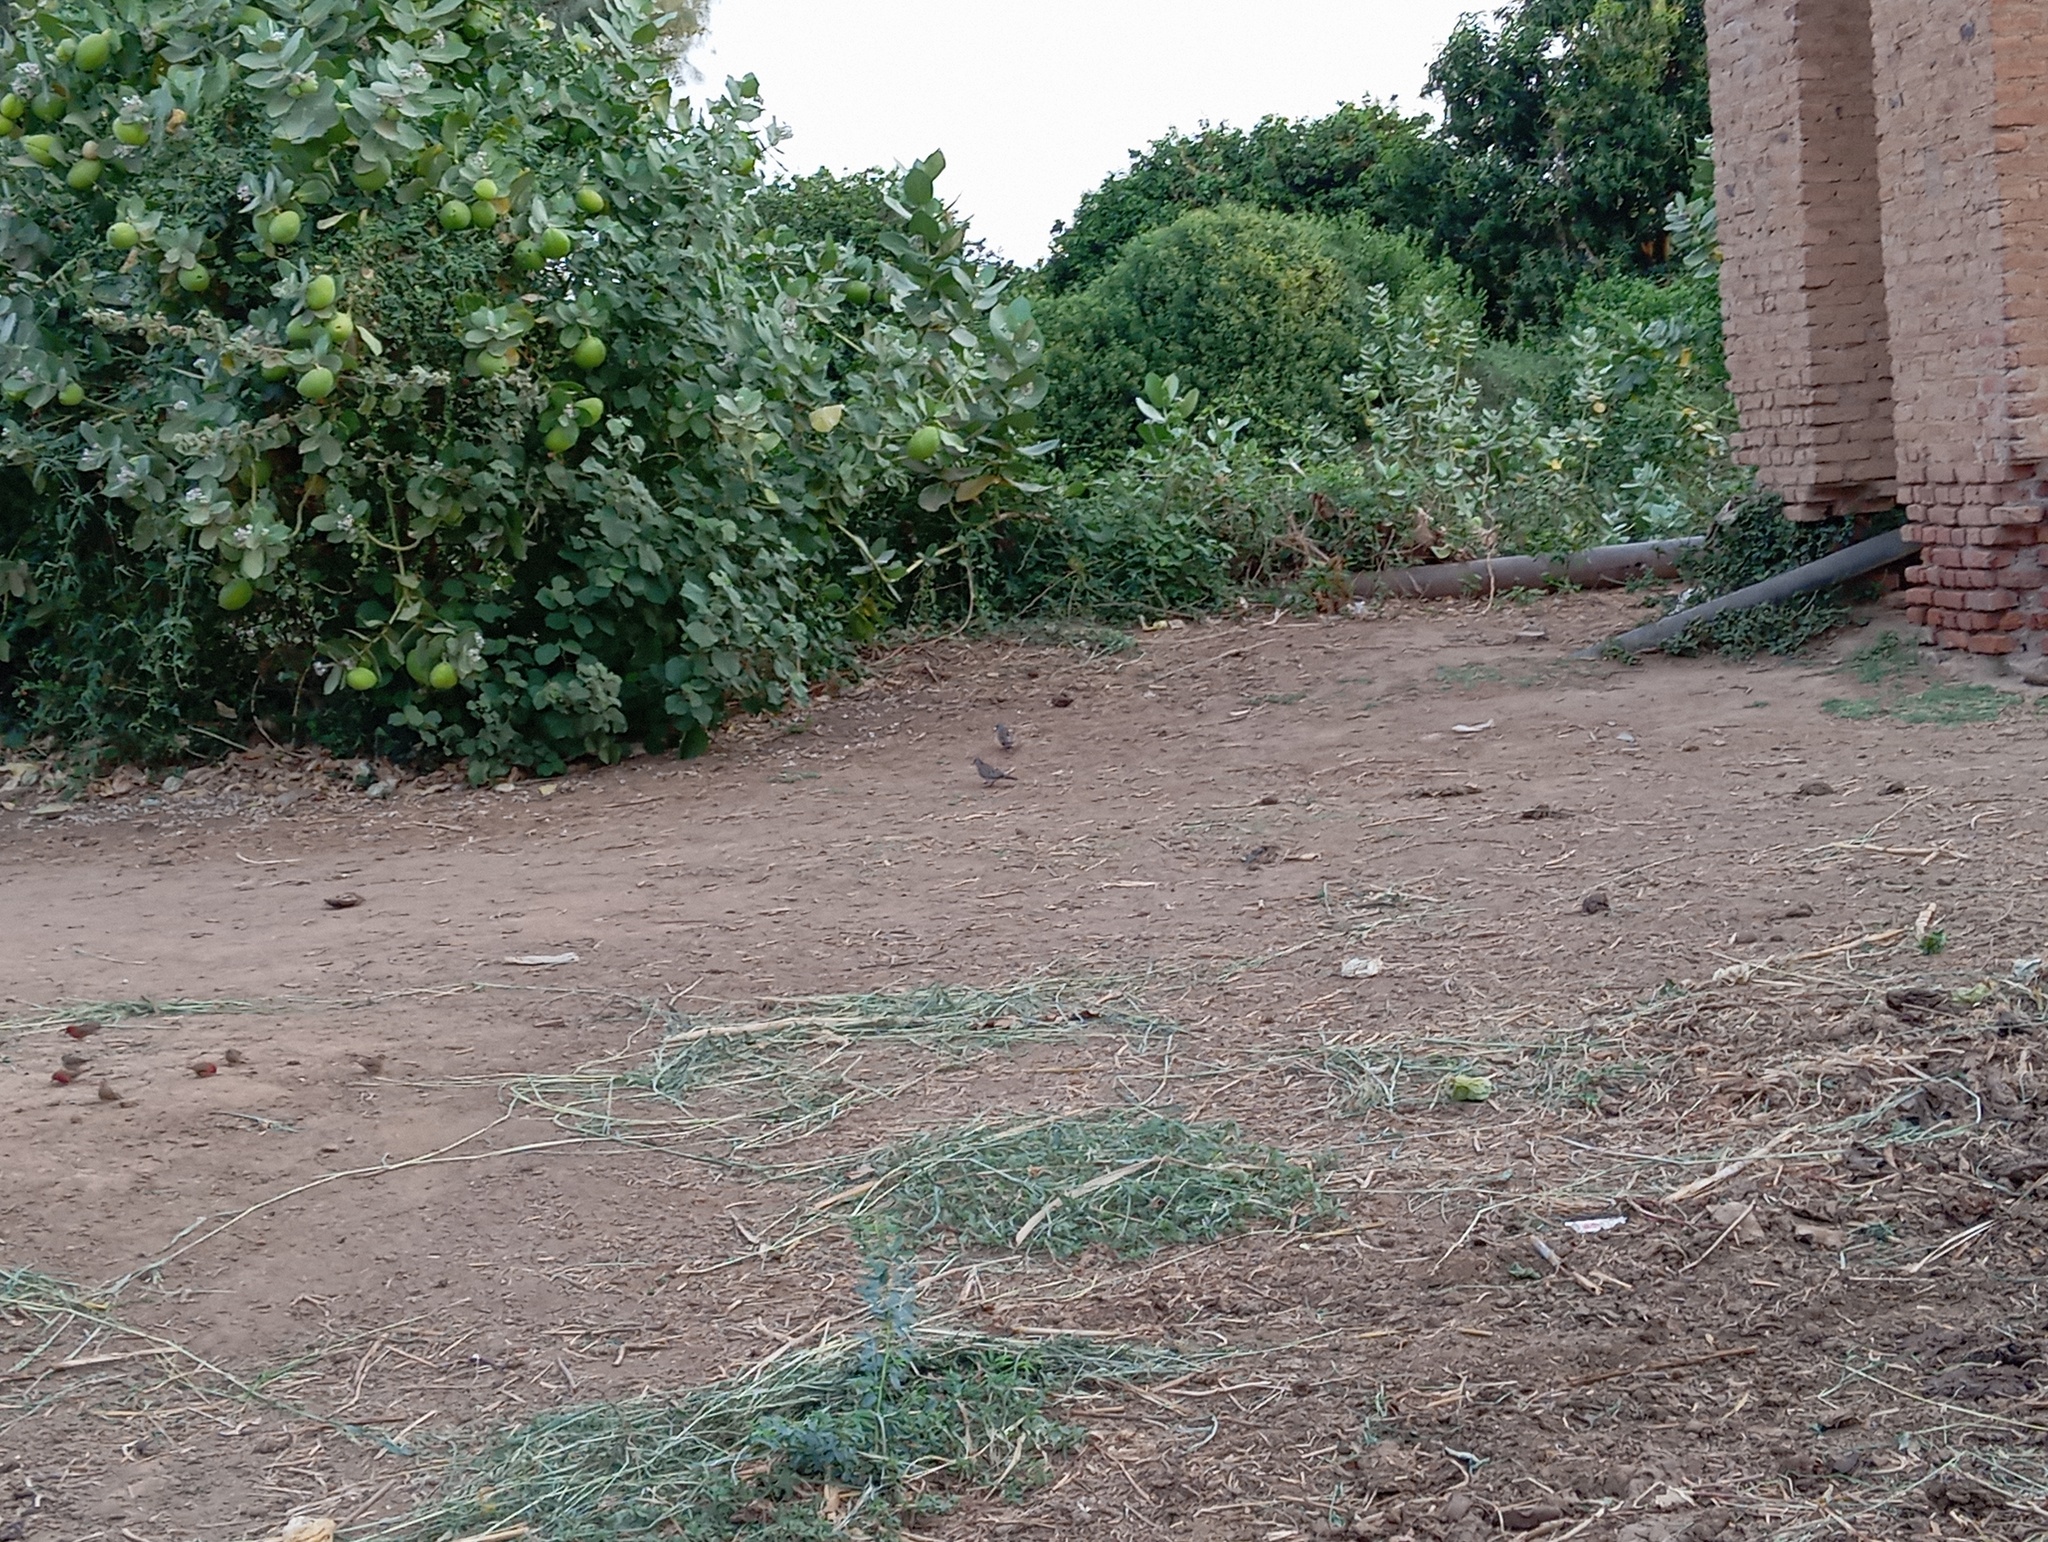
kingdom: Animalia
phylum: Chordata
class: Aves
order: Columbiformes
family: Columbidae
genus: Turtur
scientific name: Turtur abyssinicus
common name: Black-billed wood dove
